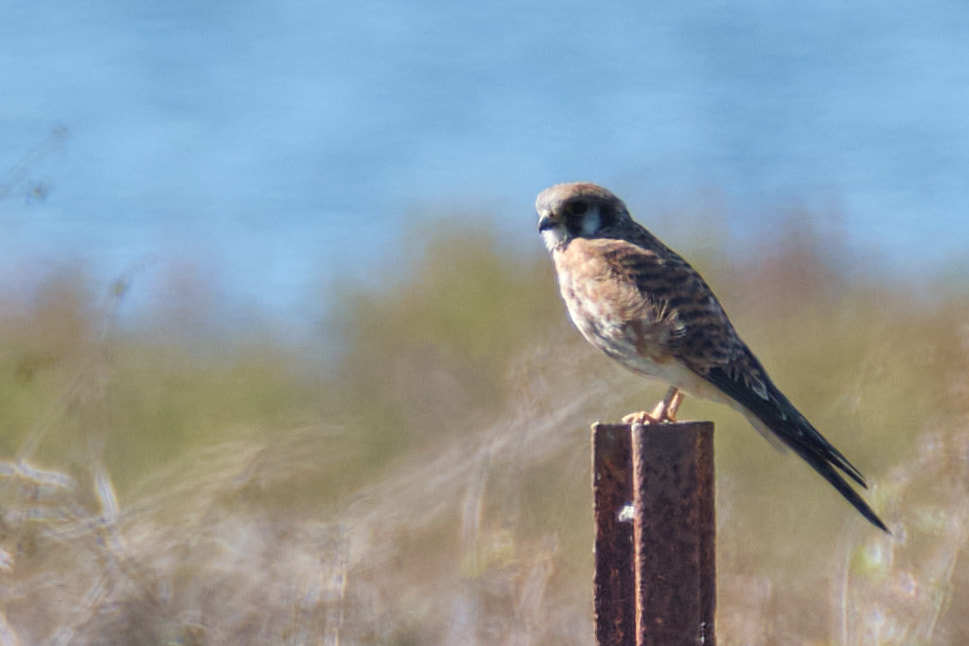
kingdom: Animalia
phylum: Chordata
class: Aves
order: Falconiformes
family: Falconidae
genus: Falco
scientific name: Falco sparverius
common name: American kestrel
